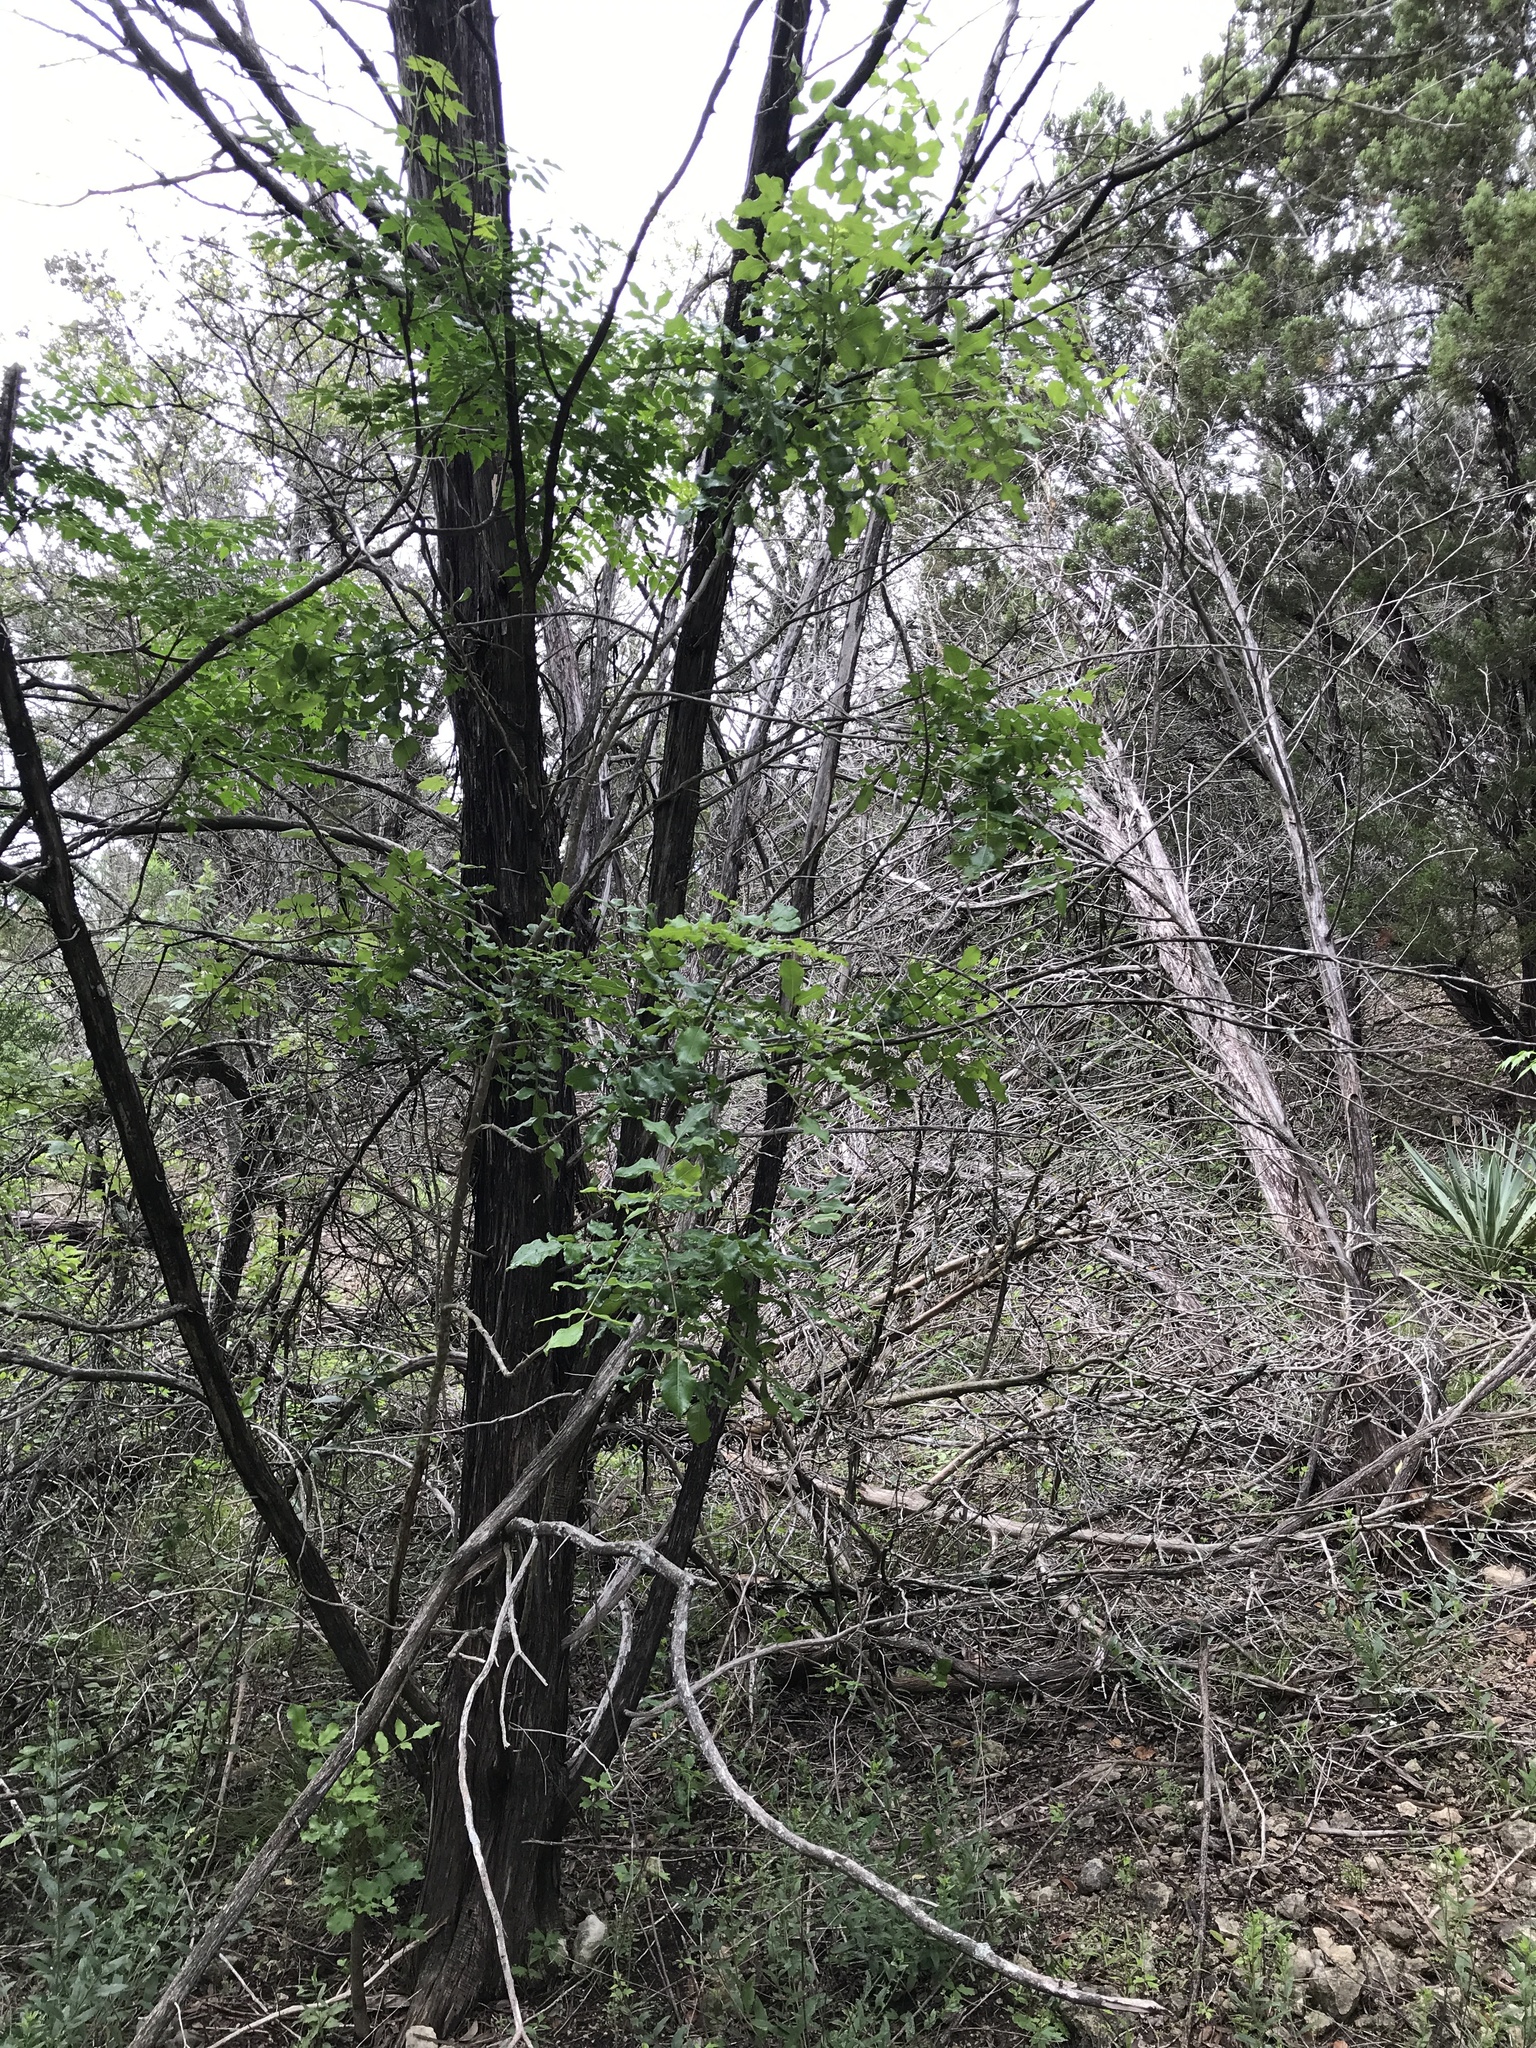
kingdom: Plantae
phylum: Tracheophyta
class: Magnoliopsida
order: Sapindales
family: Rutaceae
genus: Zanthoxylum
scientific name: Zanthoxylum clava-herculis
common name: Hercules'-club
